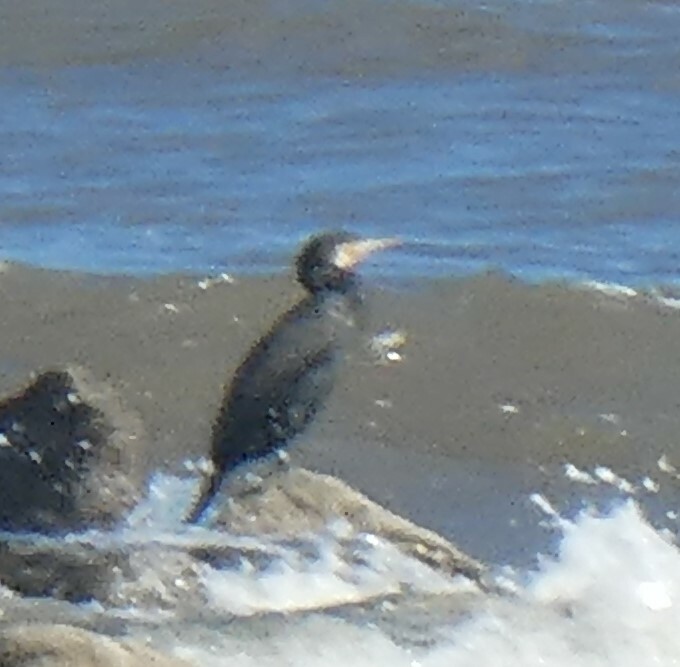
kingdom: Animalia
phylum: Chordata
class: Aves
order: Suliformes
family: Phalacrocoracidae
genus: Phalacrocorax
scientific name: Phalacrocorax carbo
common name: Great cormorant
